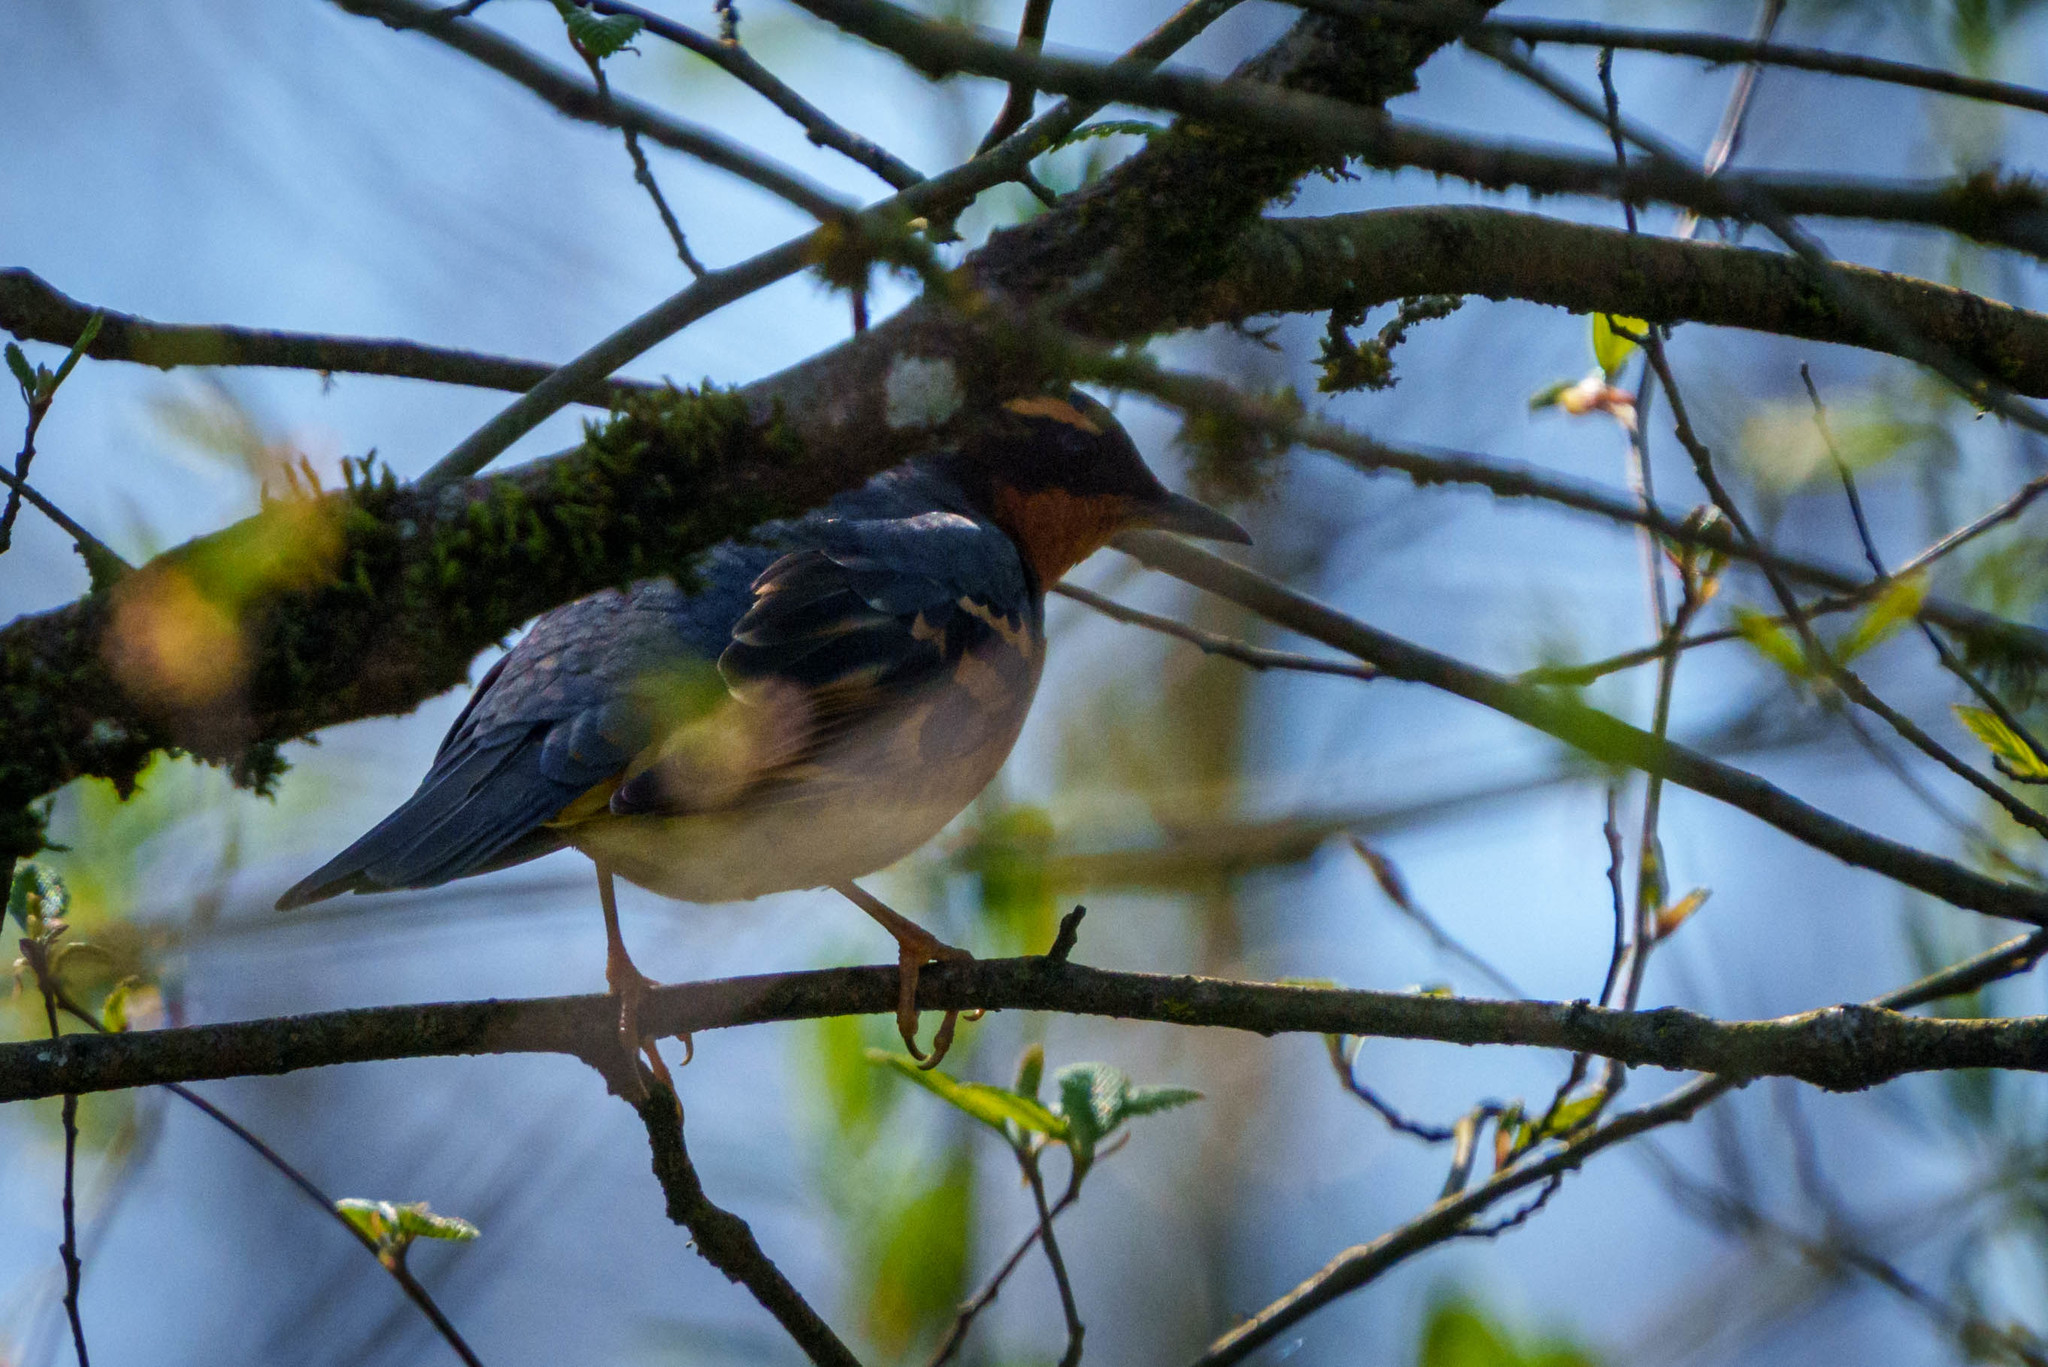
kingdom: Animalia
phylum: Chordata
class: Aves
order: Passeriformes
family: Turdidae
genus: Ixoreus
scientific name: Ixoreus naevius
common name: Varied thrush
